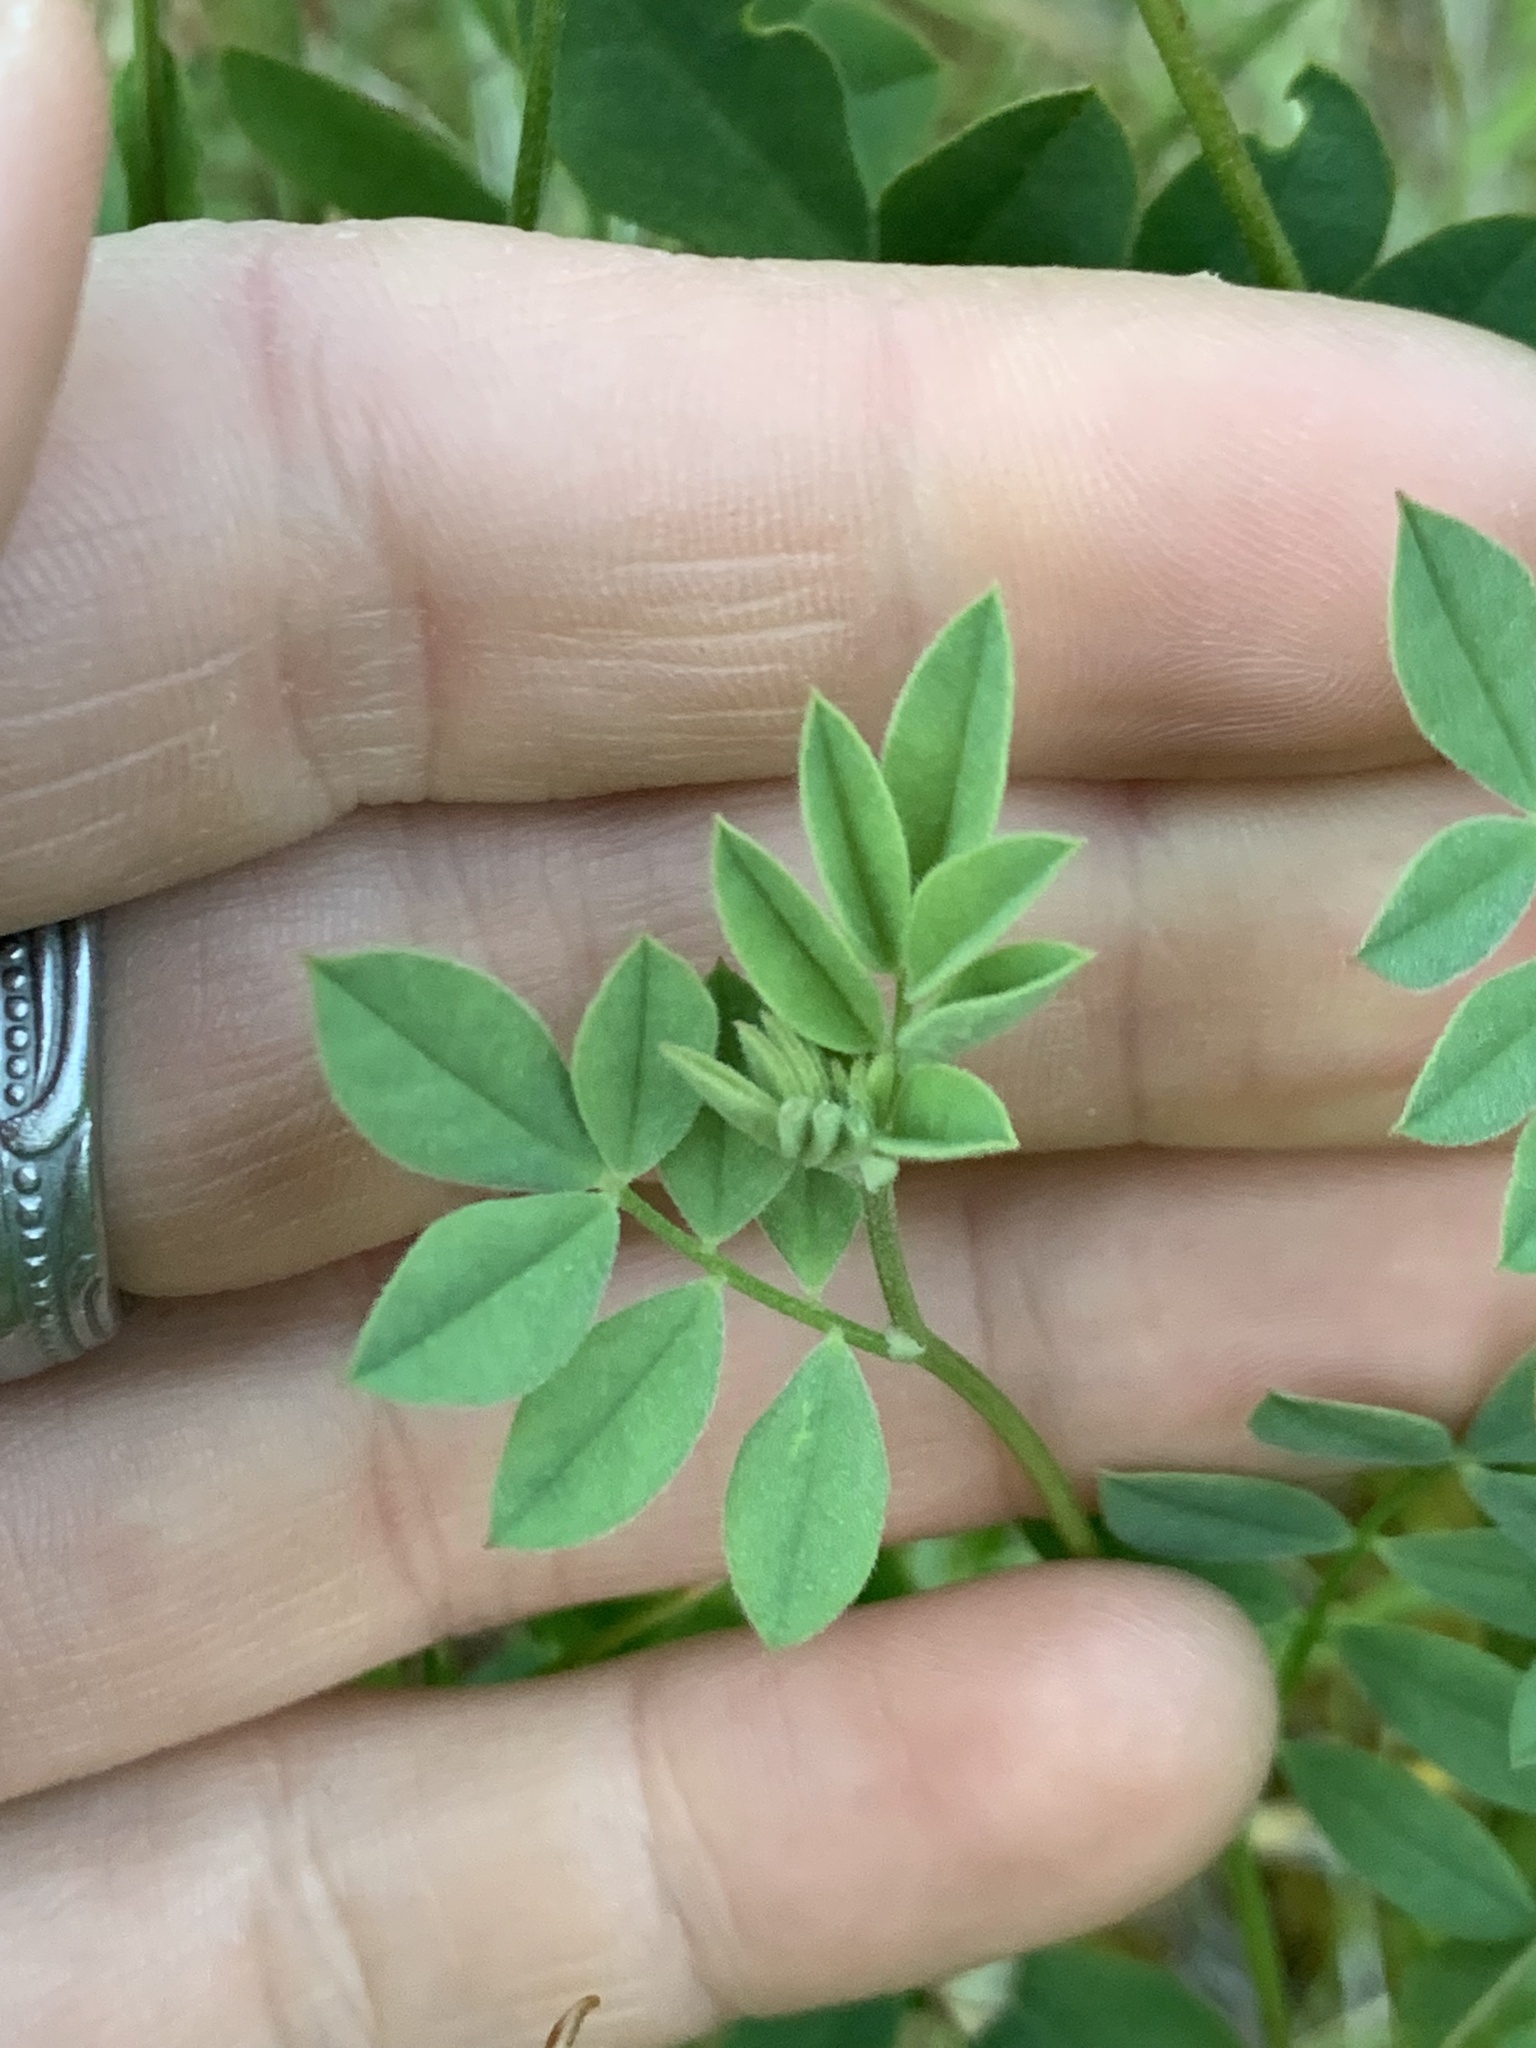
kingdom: Plantae
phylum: Tracheophyta
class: Magnoliopsida
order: Fabales
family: Fabaceae
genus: Hosackia
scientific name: Hosackia oblongifolia
